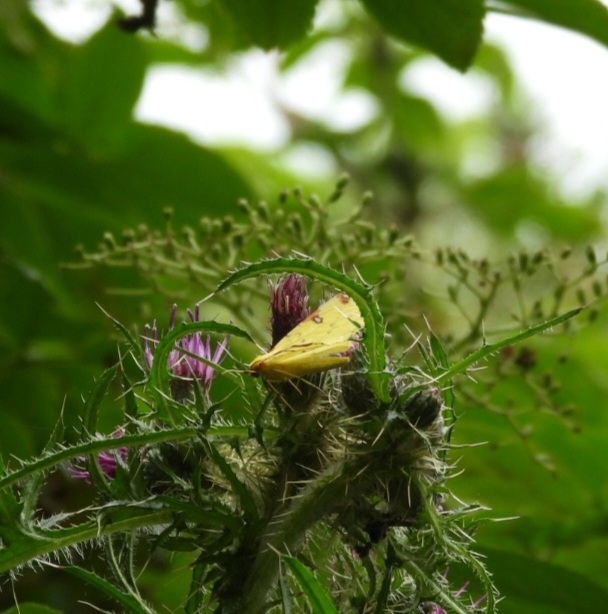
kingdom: Animalia
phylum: Arthropoda
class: Insecta
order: Lepidoptera
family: Geometridae
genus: Opisthograptis
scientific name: Opisthograptis luteolata
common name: Brimstone moth
